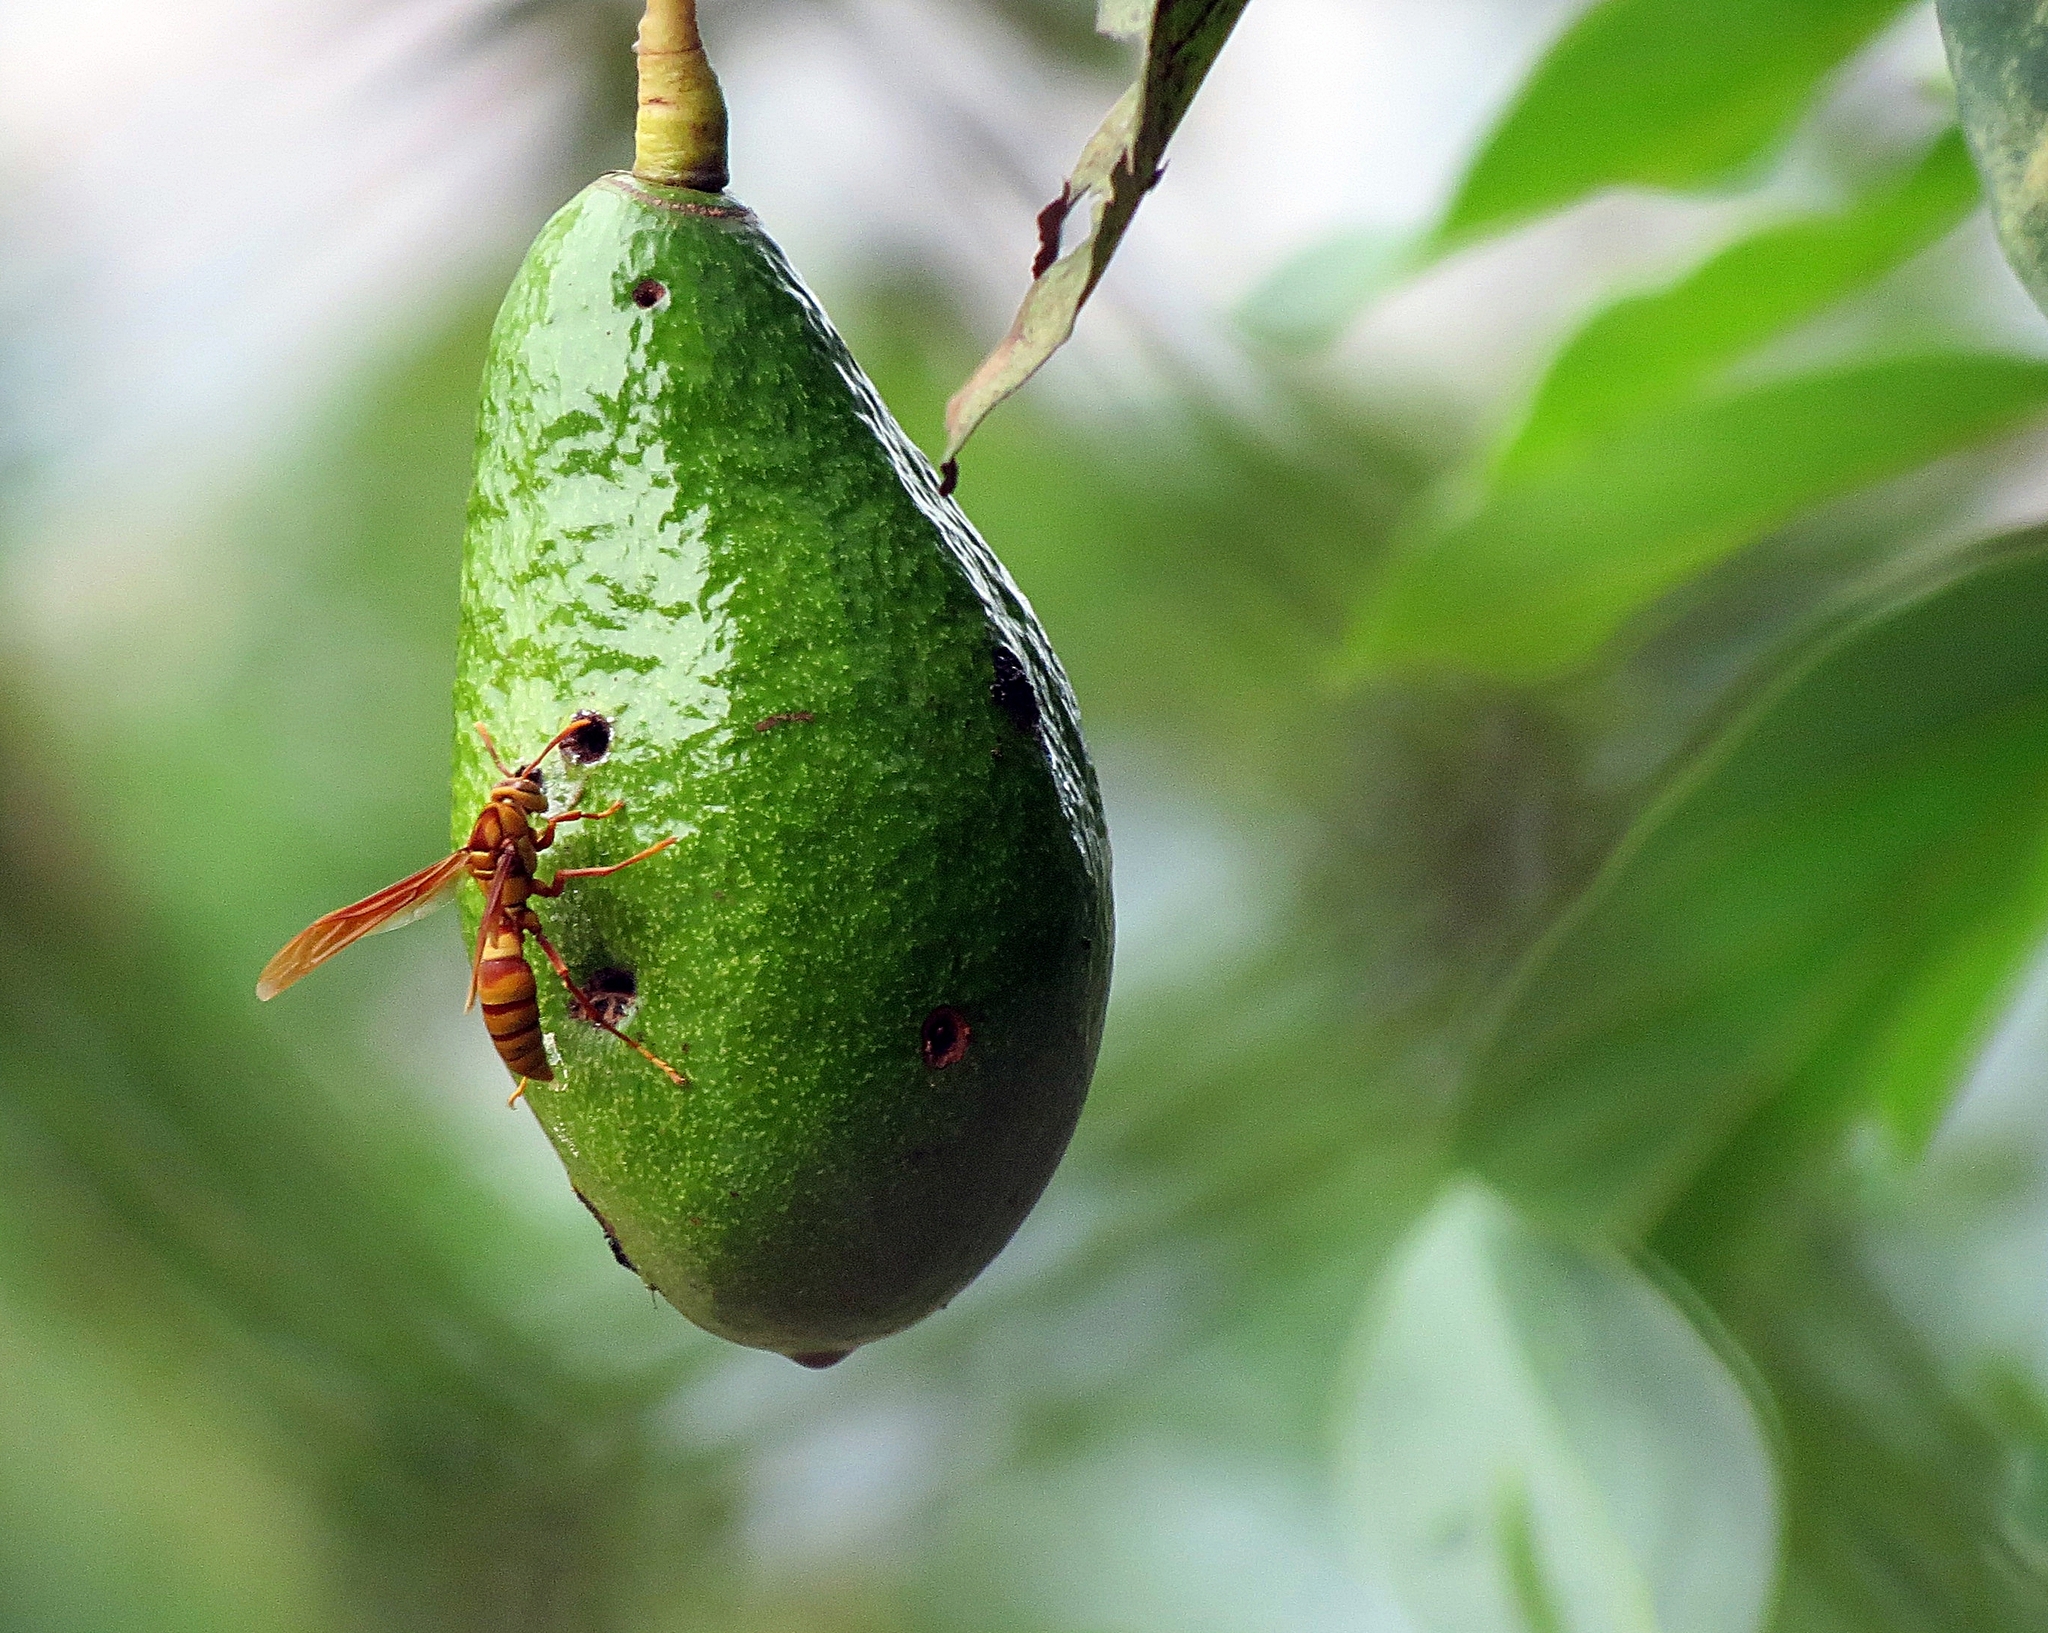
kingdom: Animalia
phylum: Arthropoda
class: Insecta
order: Hymenoptera
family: Eumenidae
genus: Polistes
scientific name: Polistes carnifex
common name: Paper wasp
